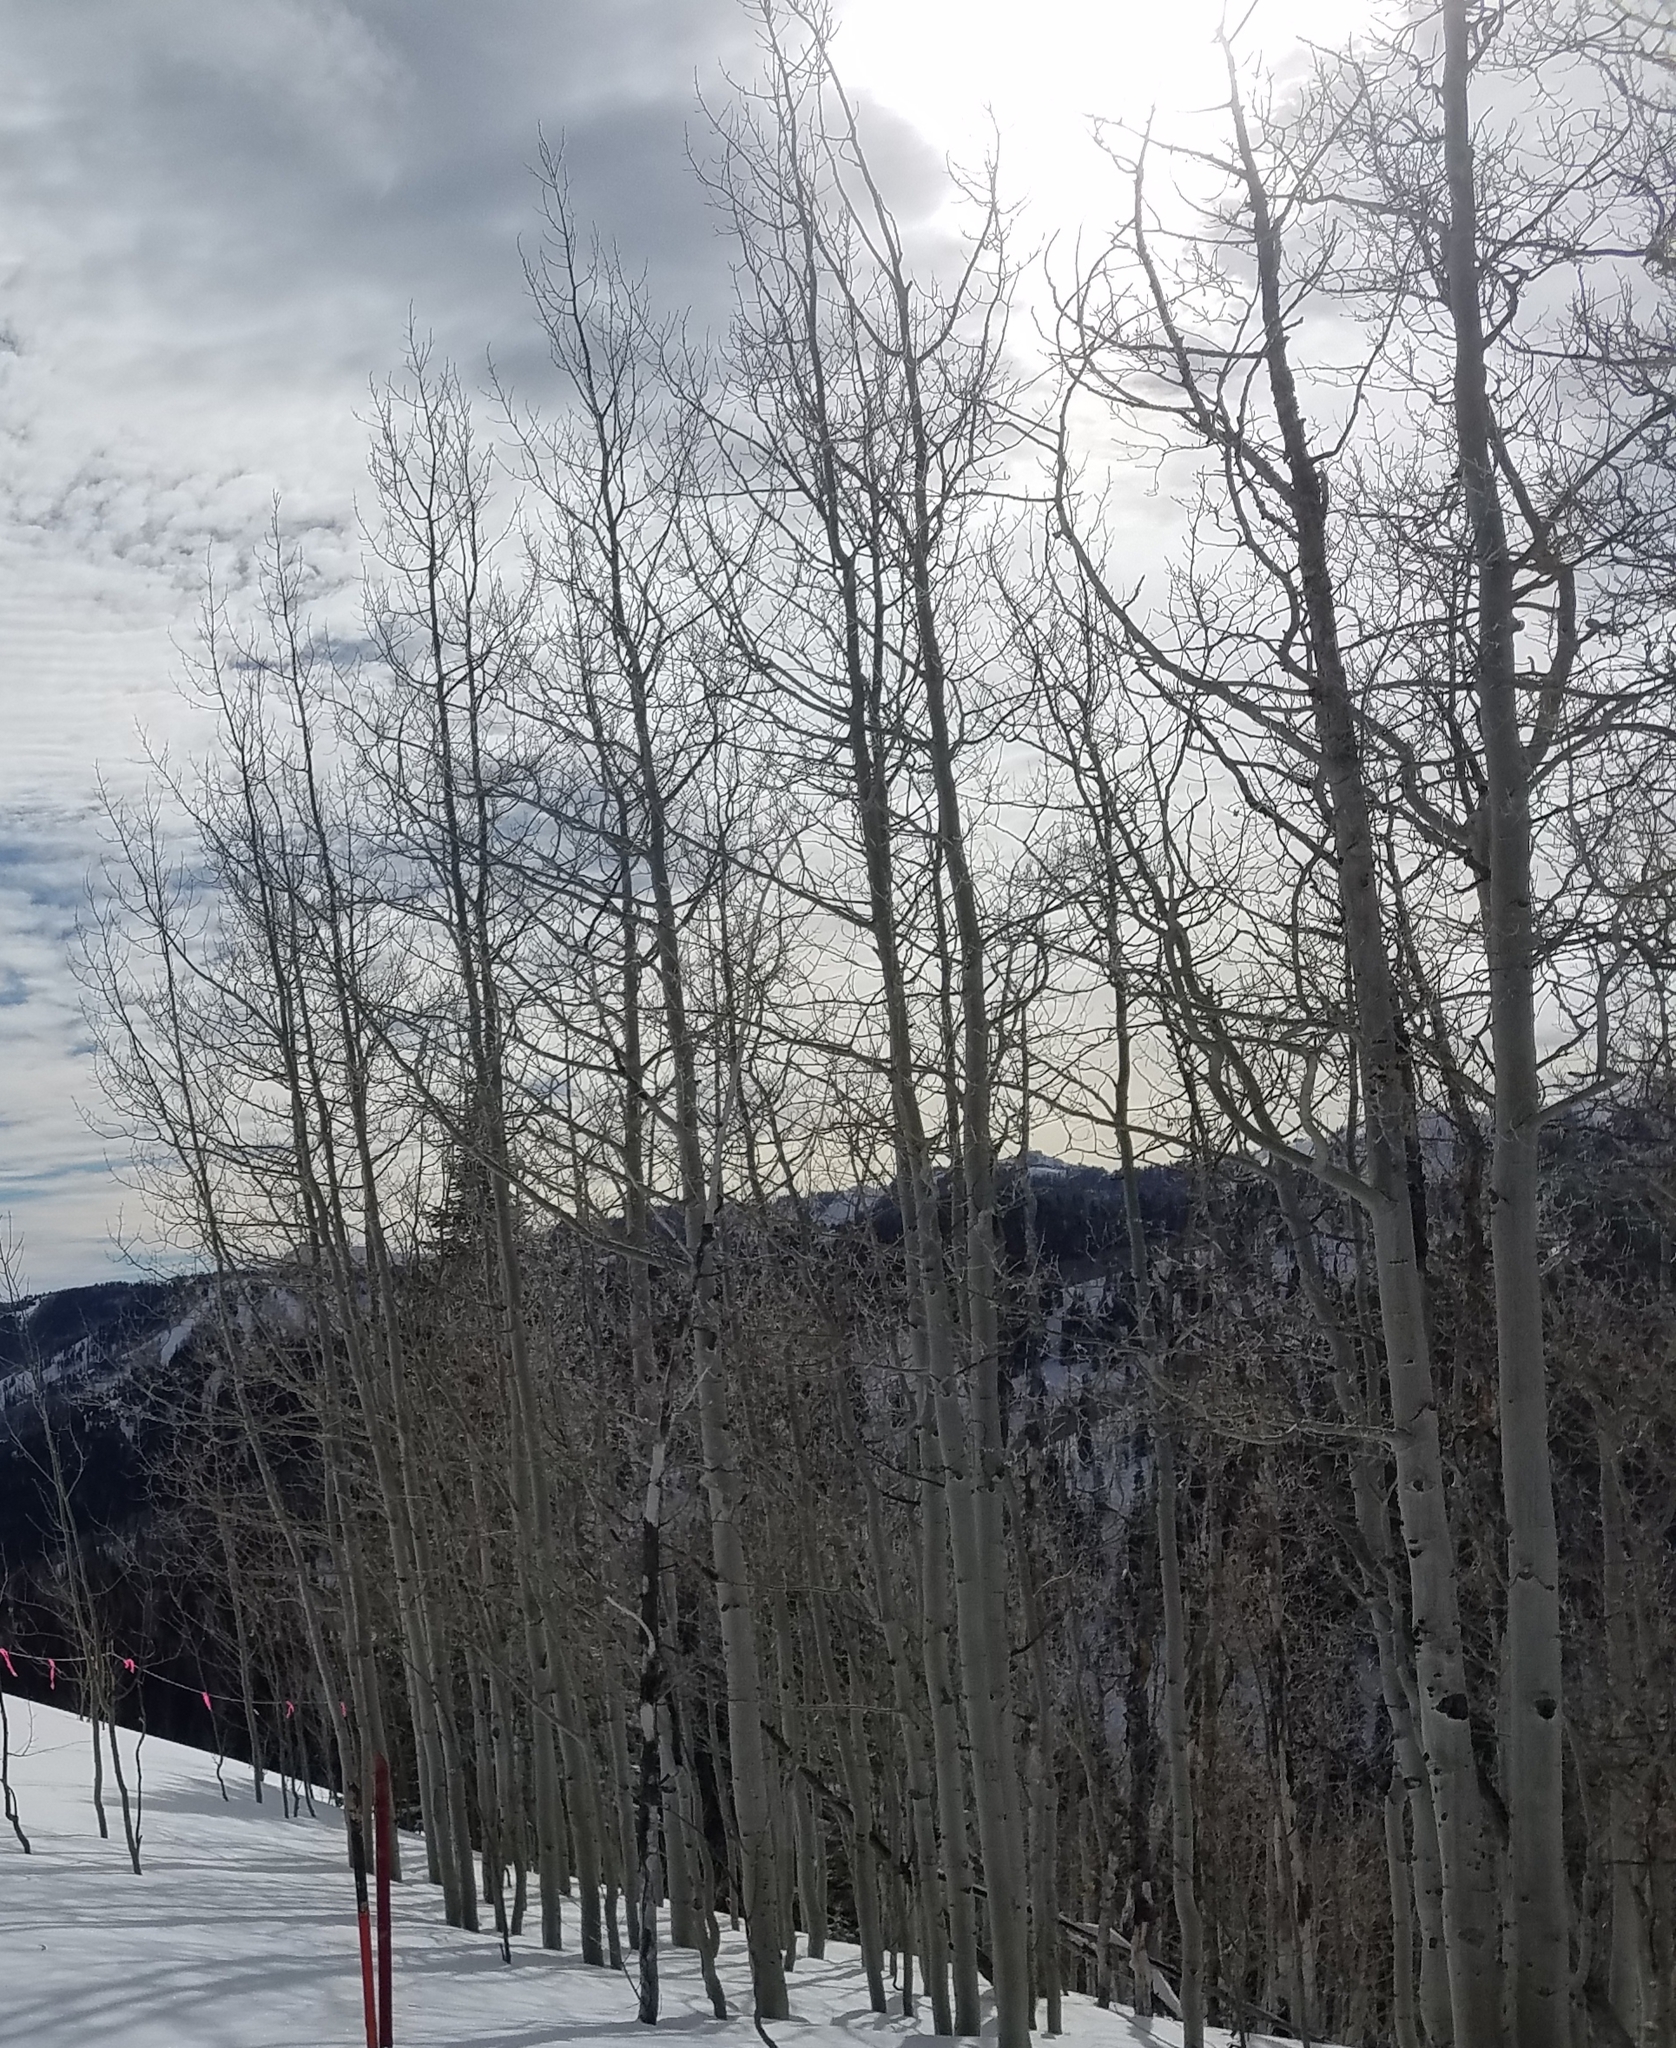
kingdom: Plantae
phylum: Tracheophyta
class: Magnoliopsida
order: Malpighiales
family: Salicaceae
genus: Populus
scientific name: Populus tremuloides
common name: Quaking aspen
